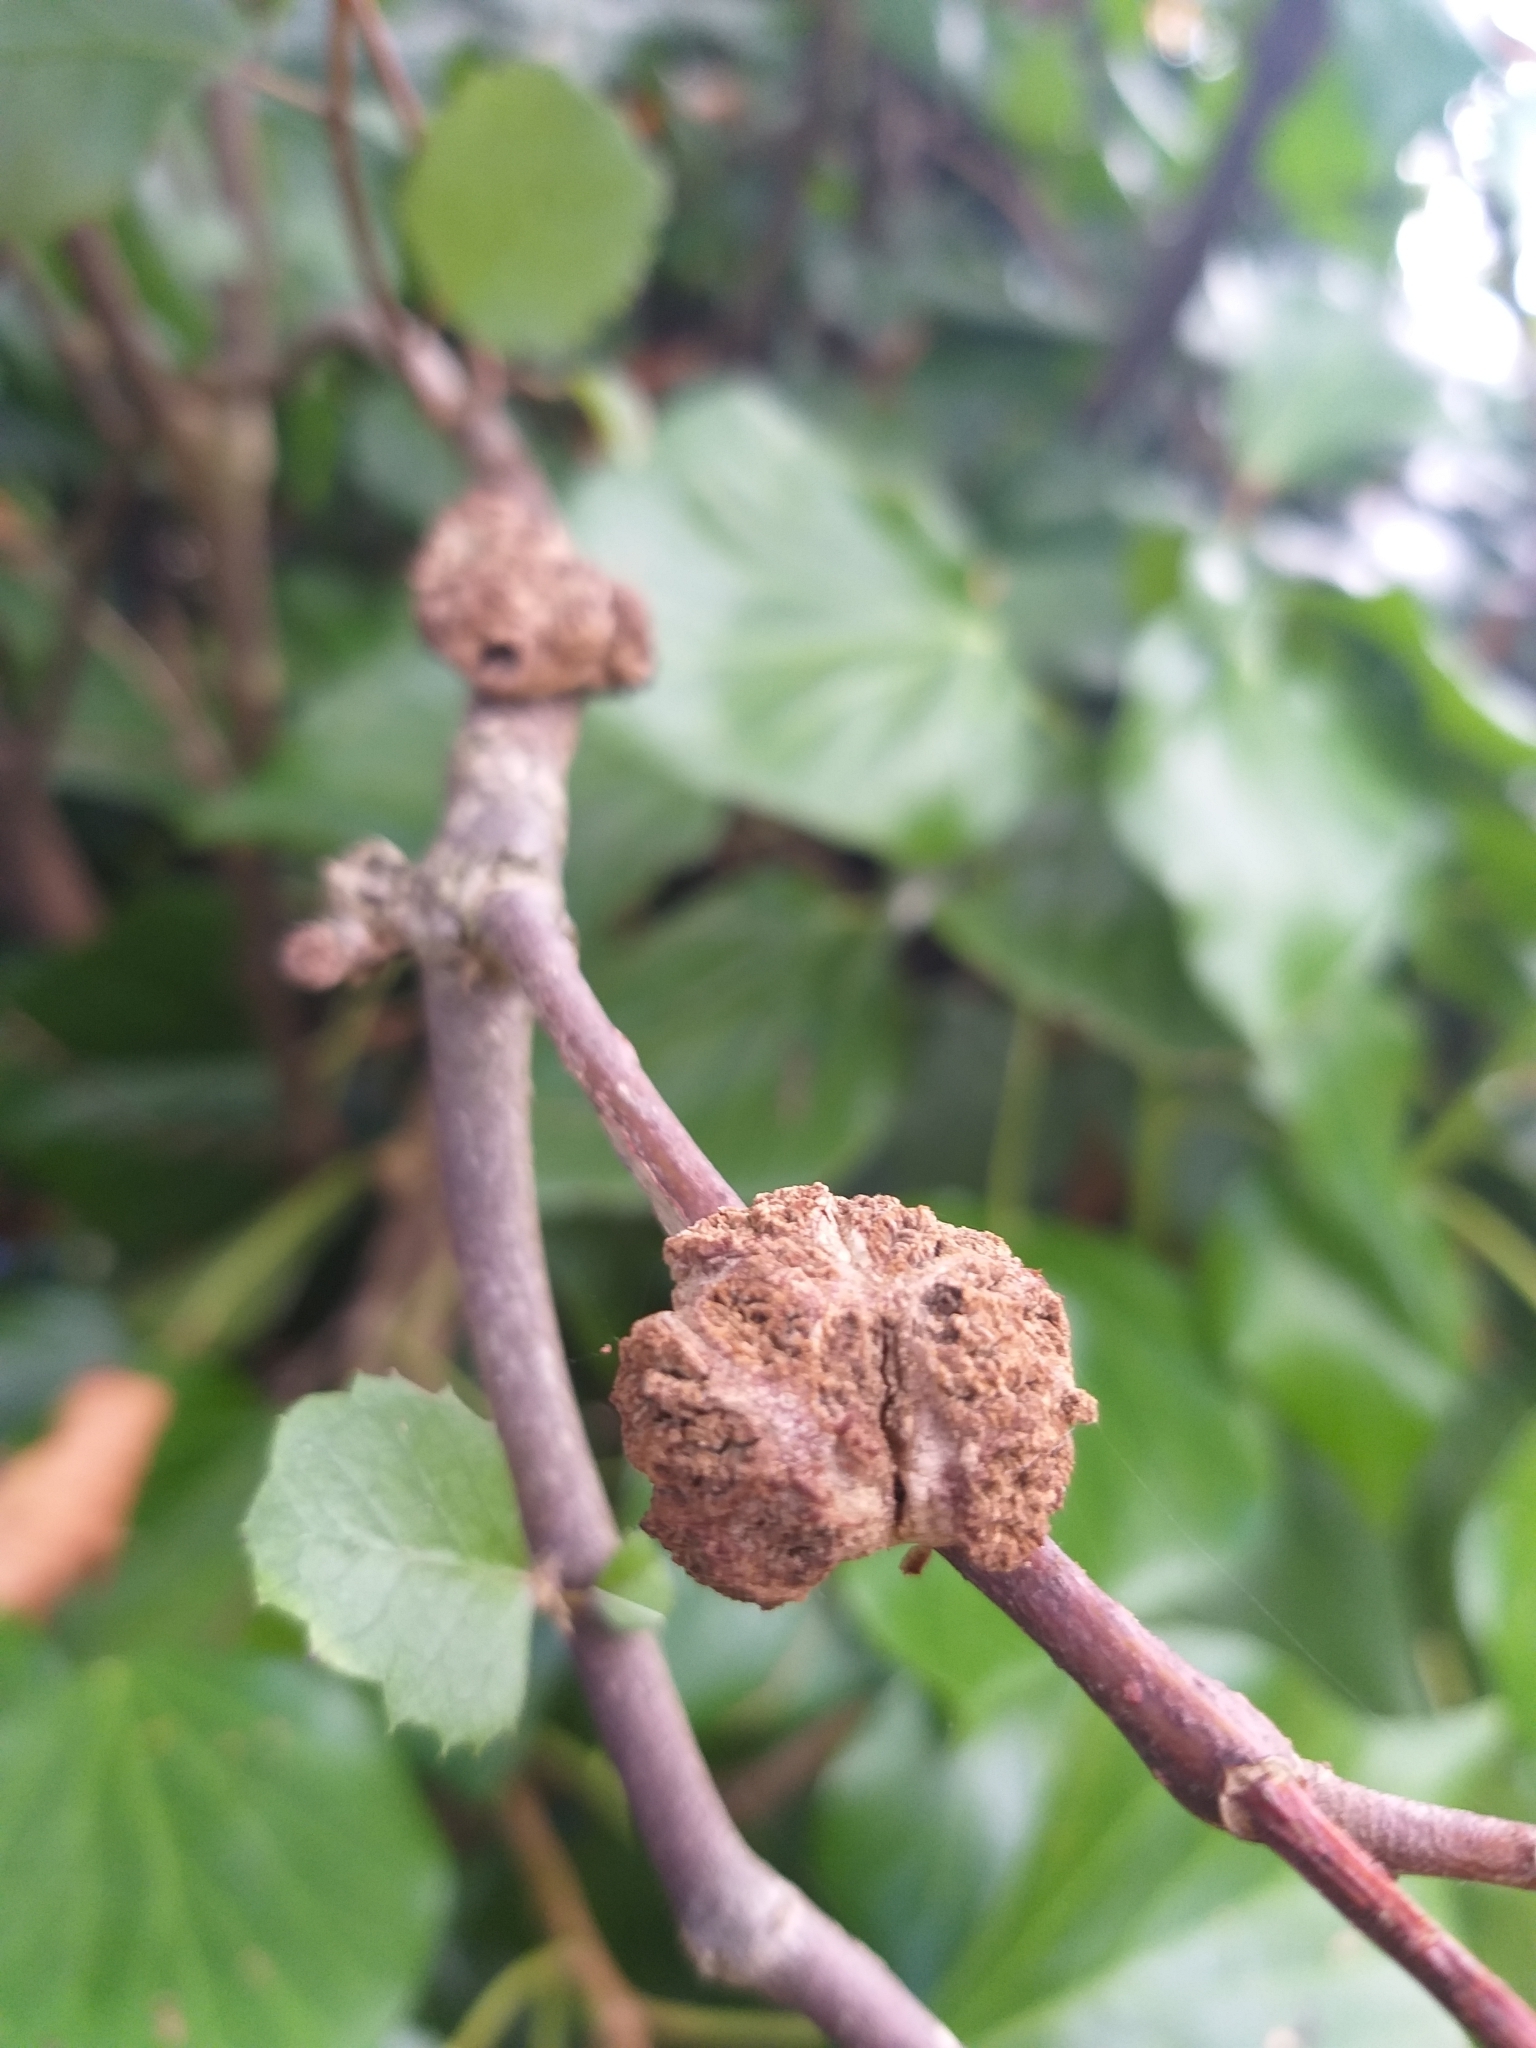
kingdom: Animalia
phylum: Arthropoda
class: Arachnida
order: Trombidiformes
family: Eriophyidae
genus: Eriophyes
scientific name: Eriophyes hoheriae
